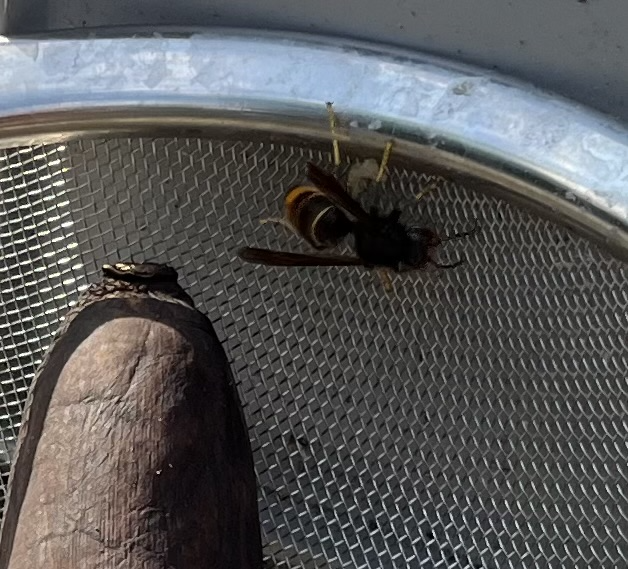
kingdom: Animalia
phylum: Arthropoda
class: Insecta
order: Hymenoptera
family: Vespidae
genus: Vespa
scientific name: Vespa velutina
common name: Asian hornet
